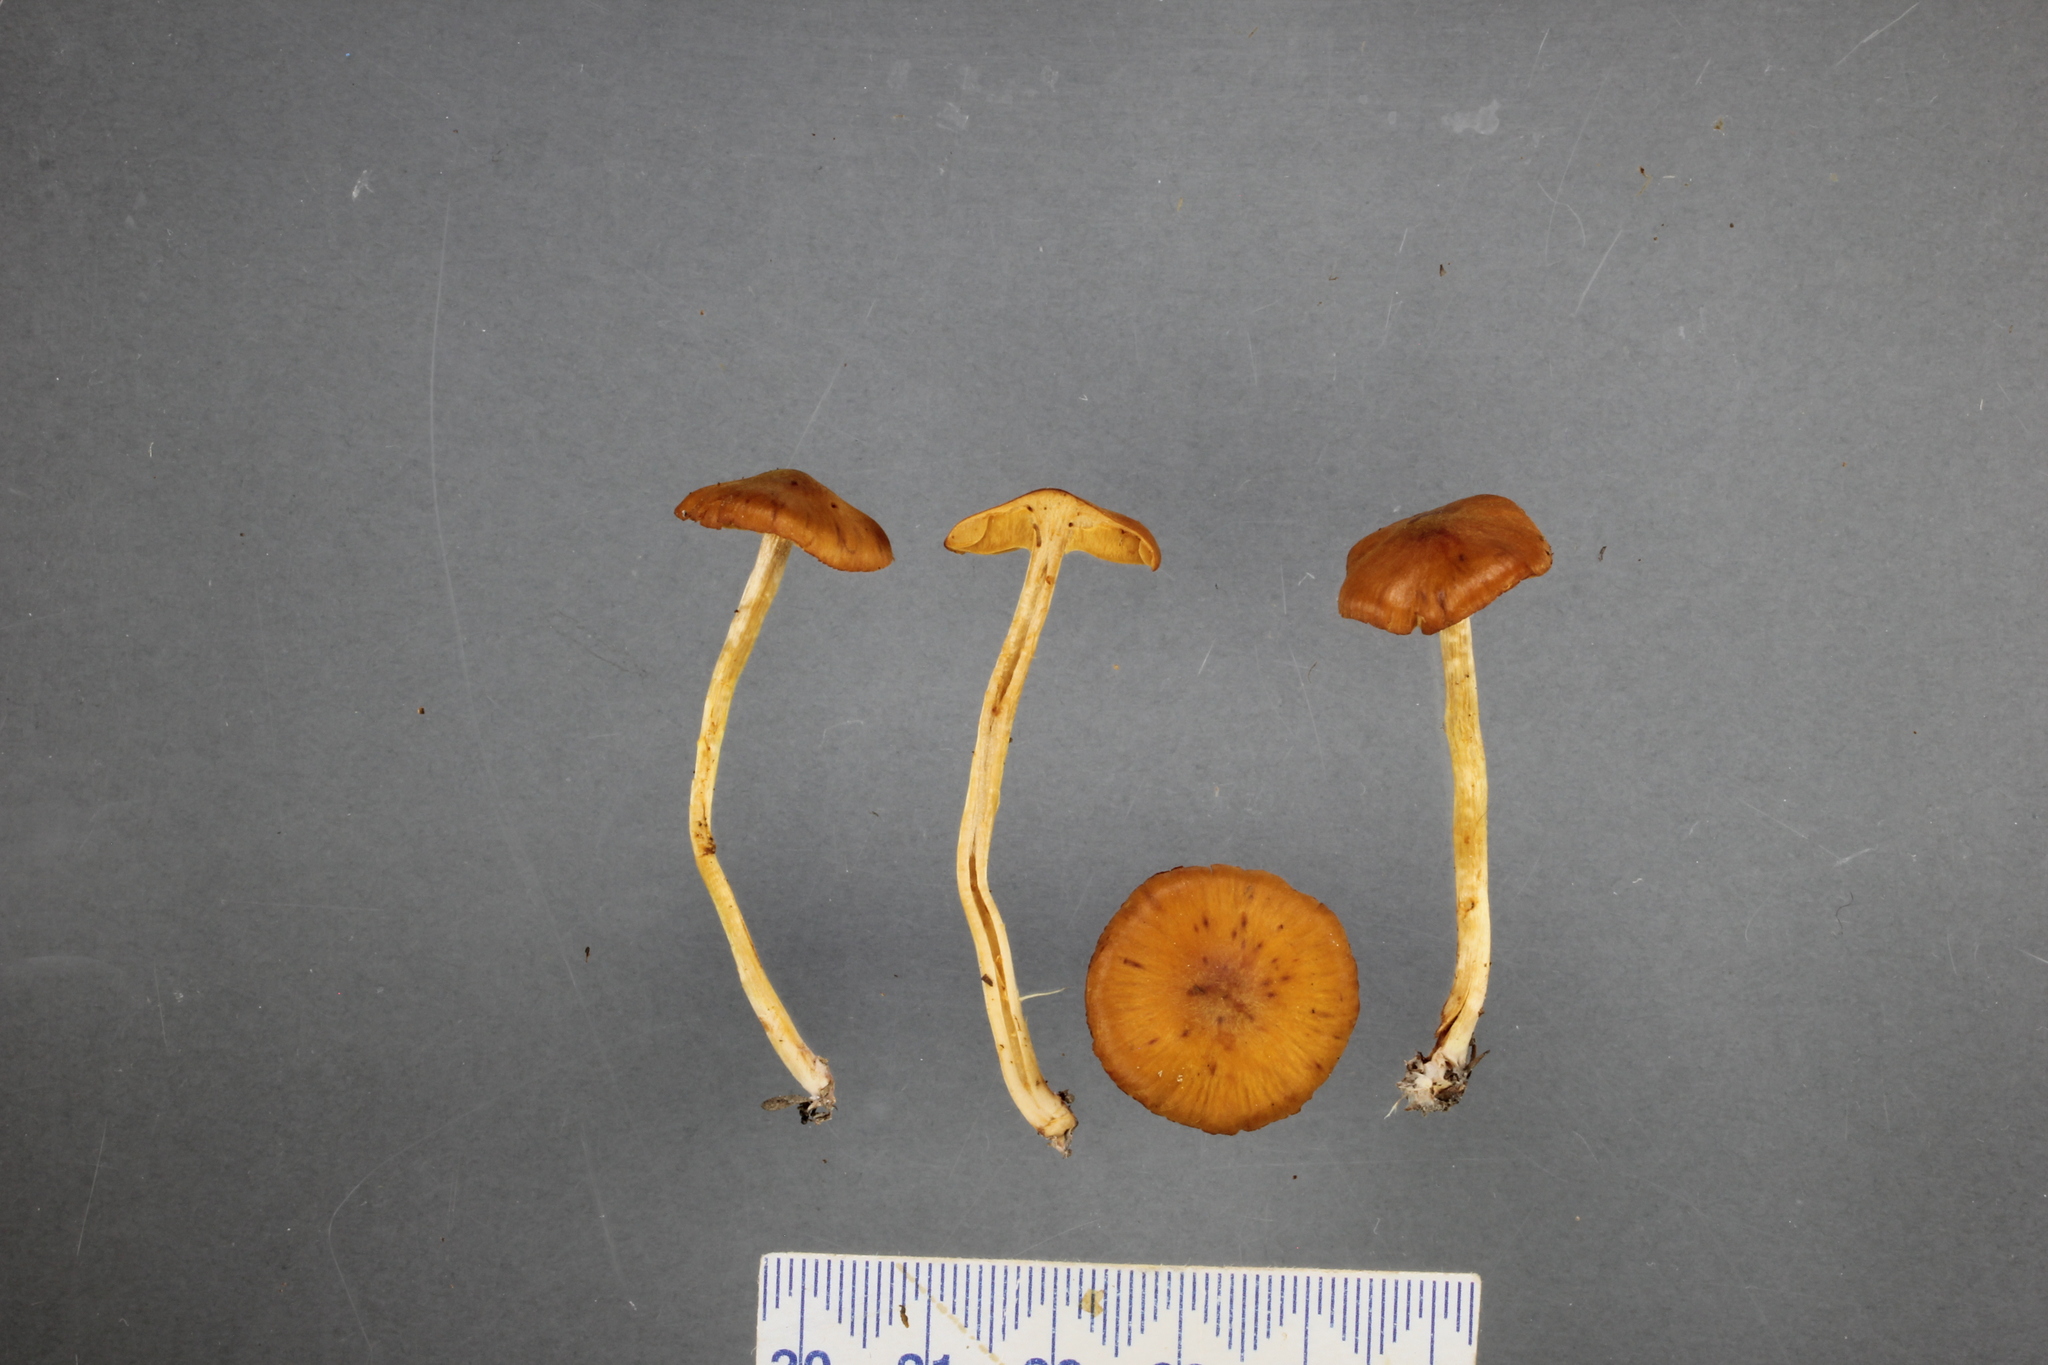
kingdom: Fungi
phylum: Basidiomycota
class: Agaricomycetes
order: Agaricales
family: Cortinariaceae
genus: Cortinarius
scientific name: Cortinarius peraurilis
